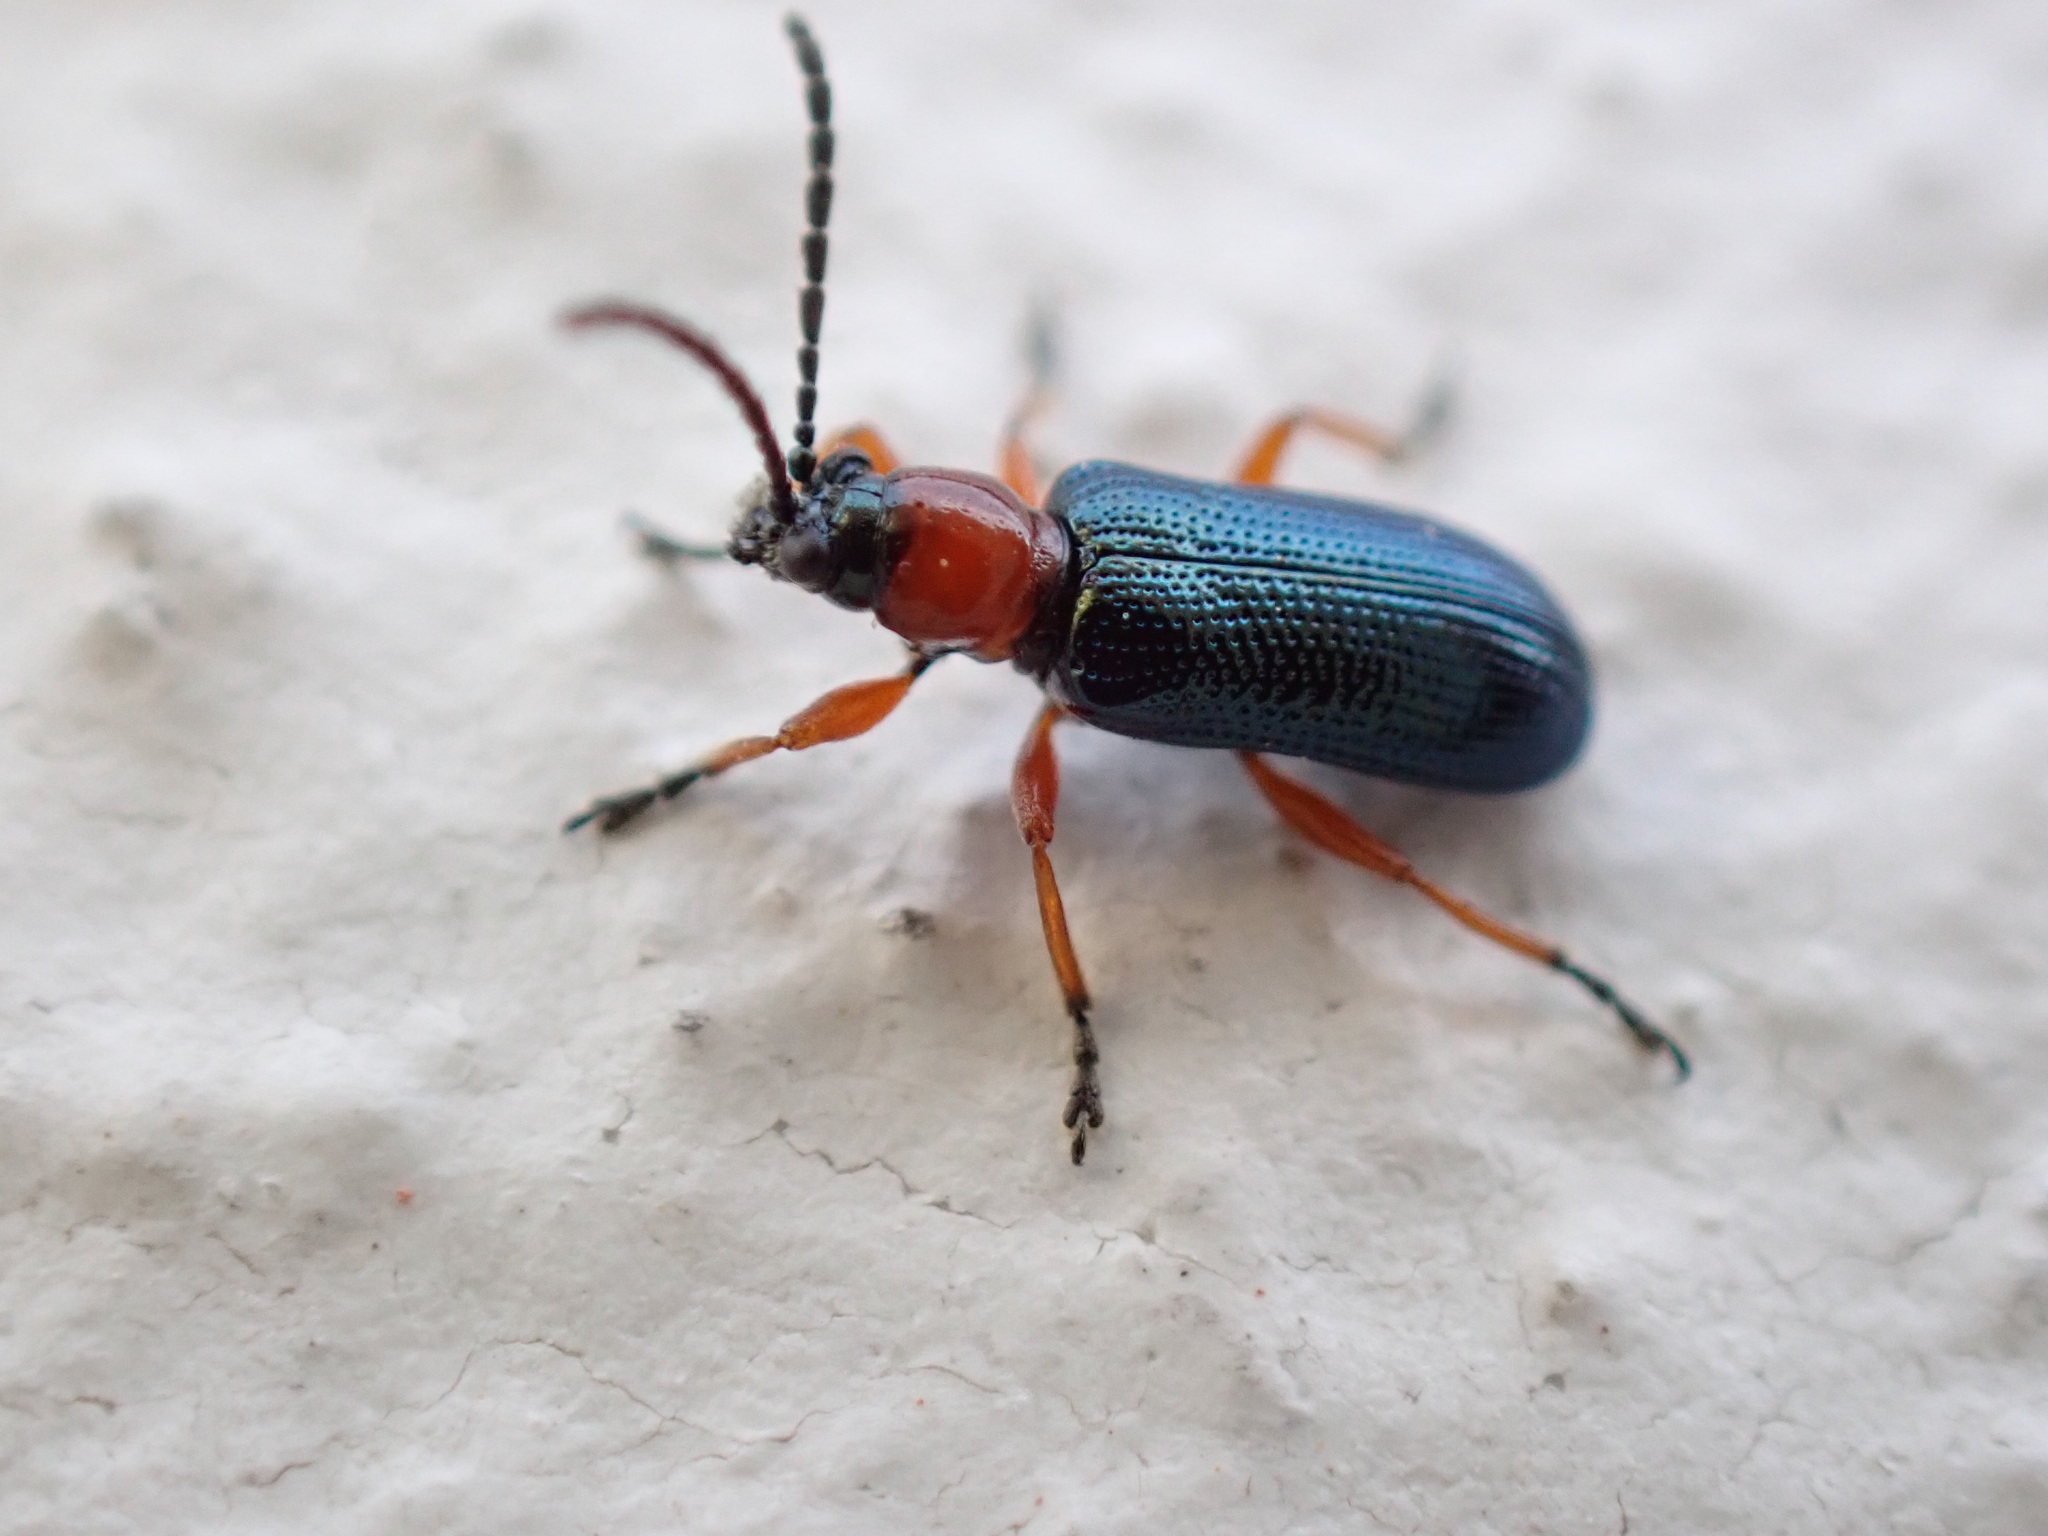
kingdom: Animalia
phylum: Arthropoda
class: Insecta
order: Coleoptera
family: Chrysomelidae
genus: Oulema
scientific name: Oulema
